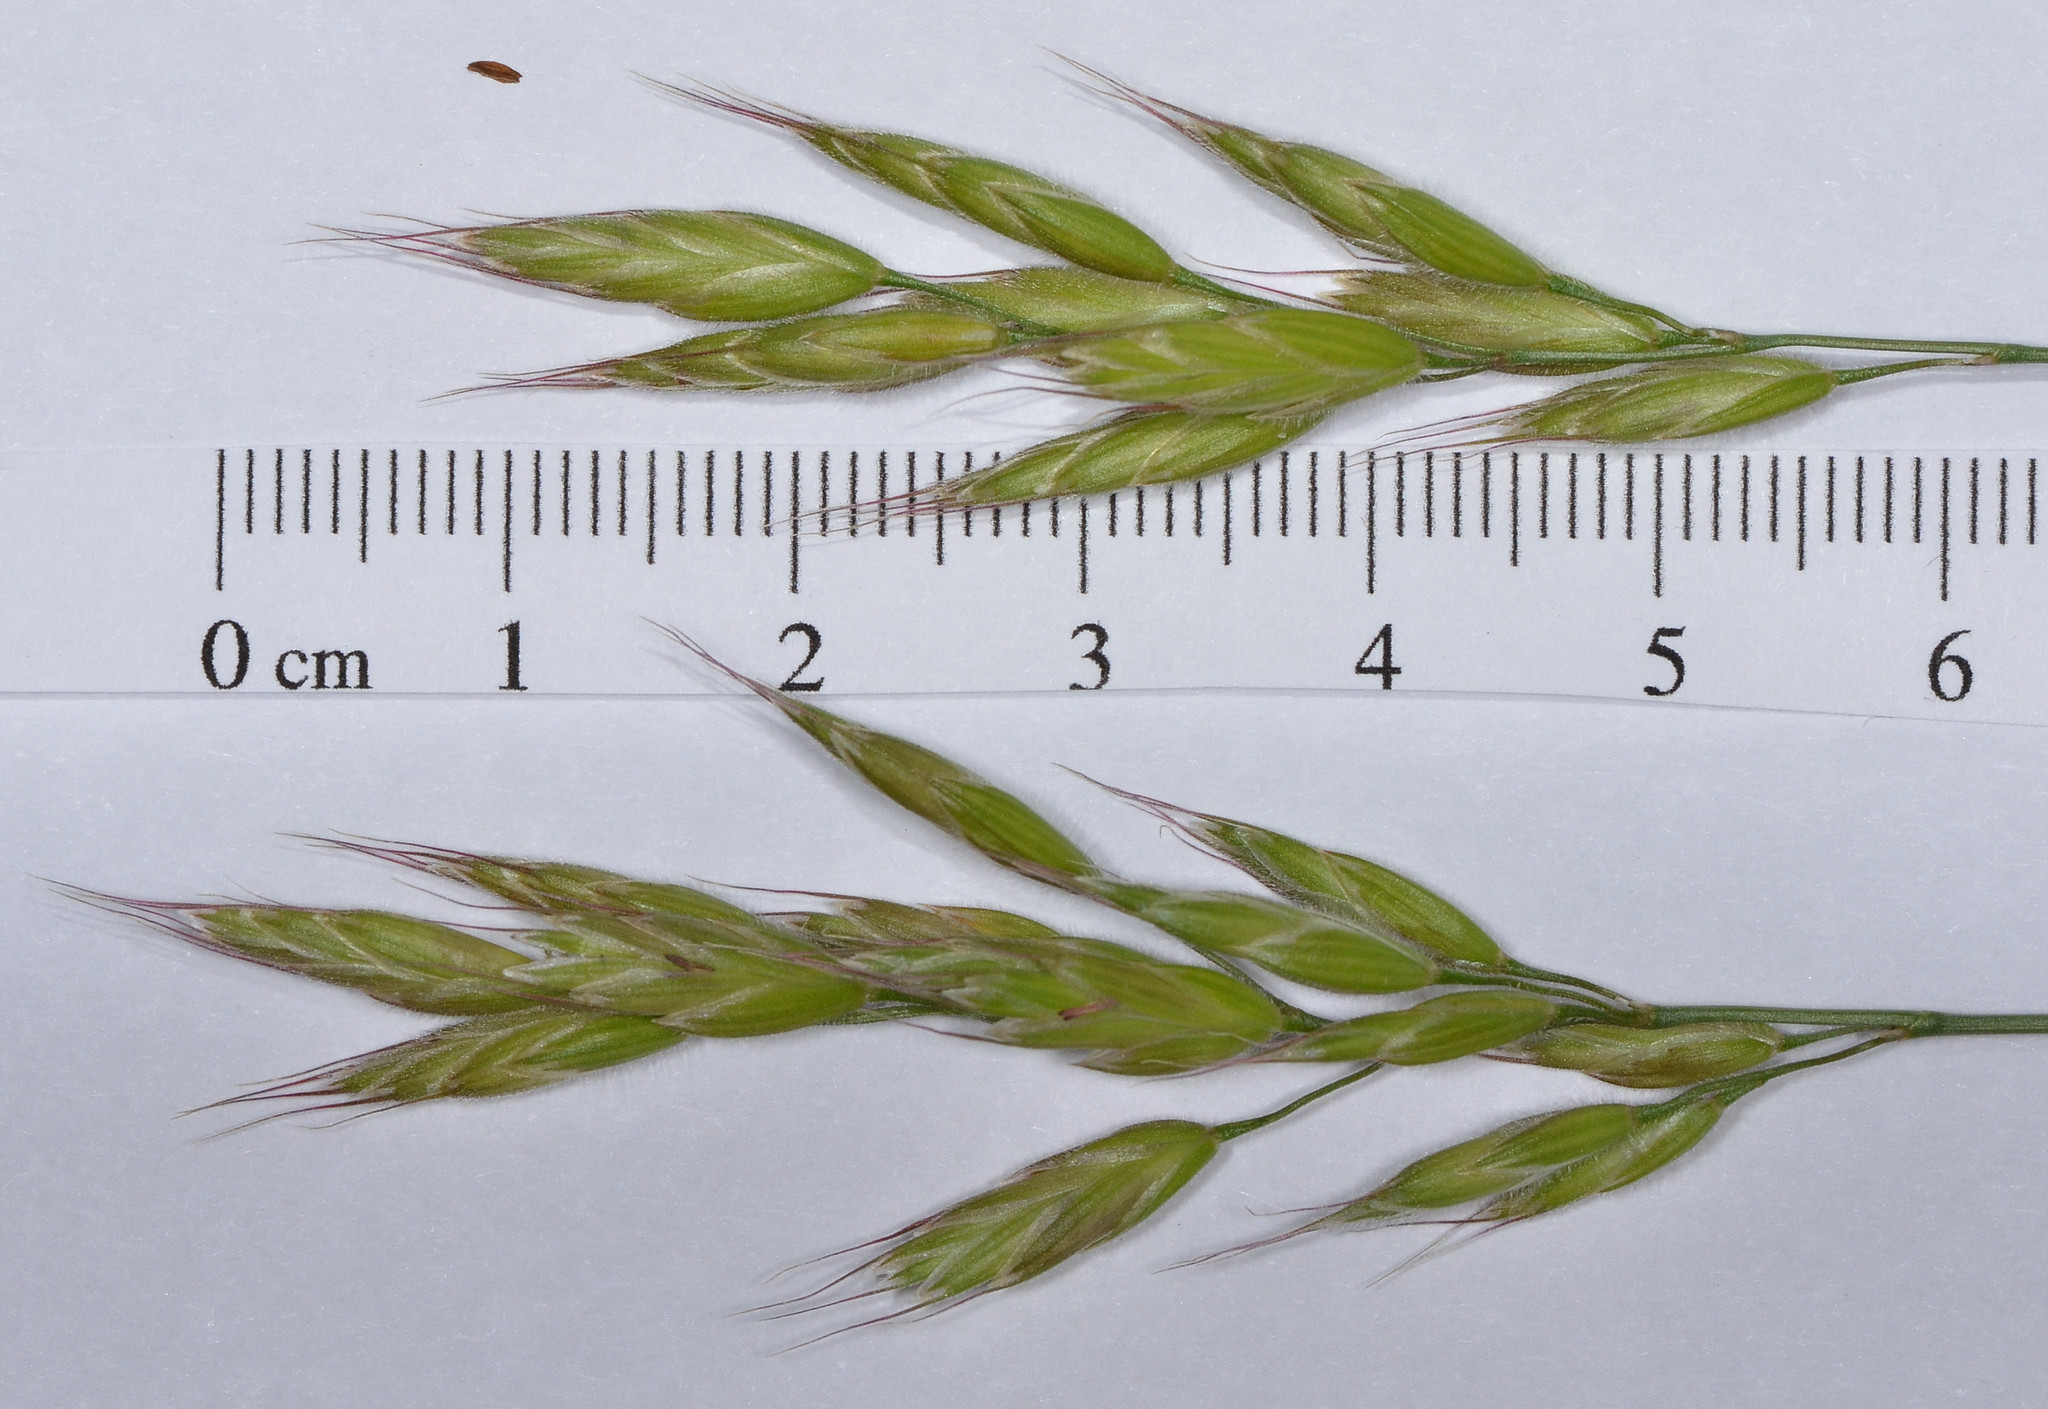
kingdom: Plantae
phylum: Tracheophyta
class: Liliopsida
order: Poales
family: Poaceae
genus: Bromus
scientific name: Bromus hordeaceus
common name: Soft brome
